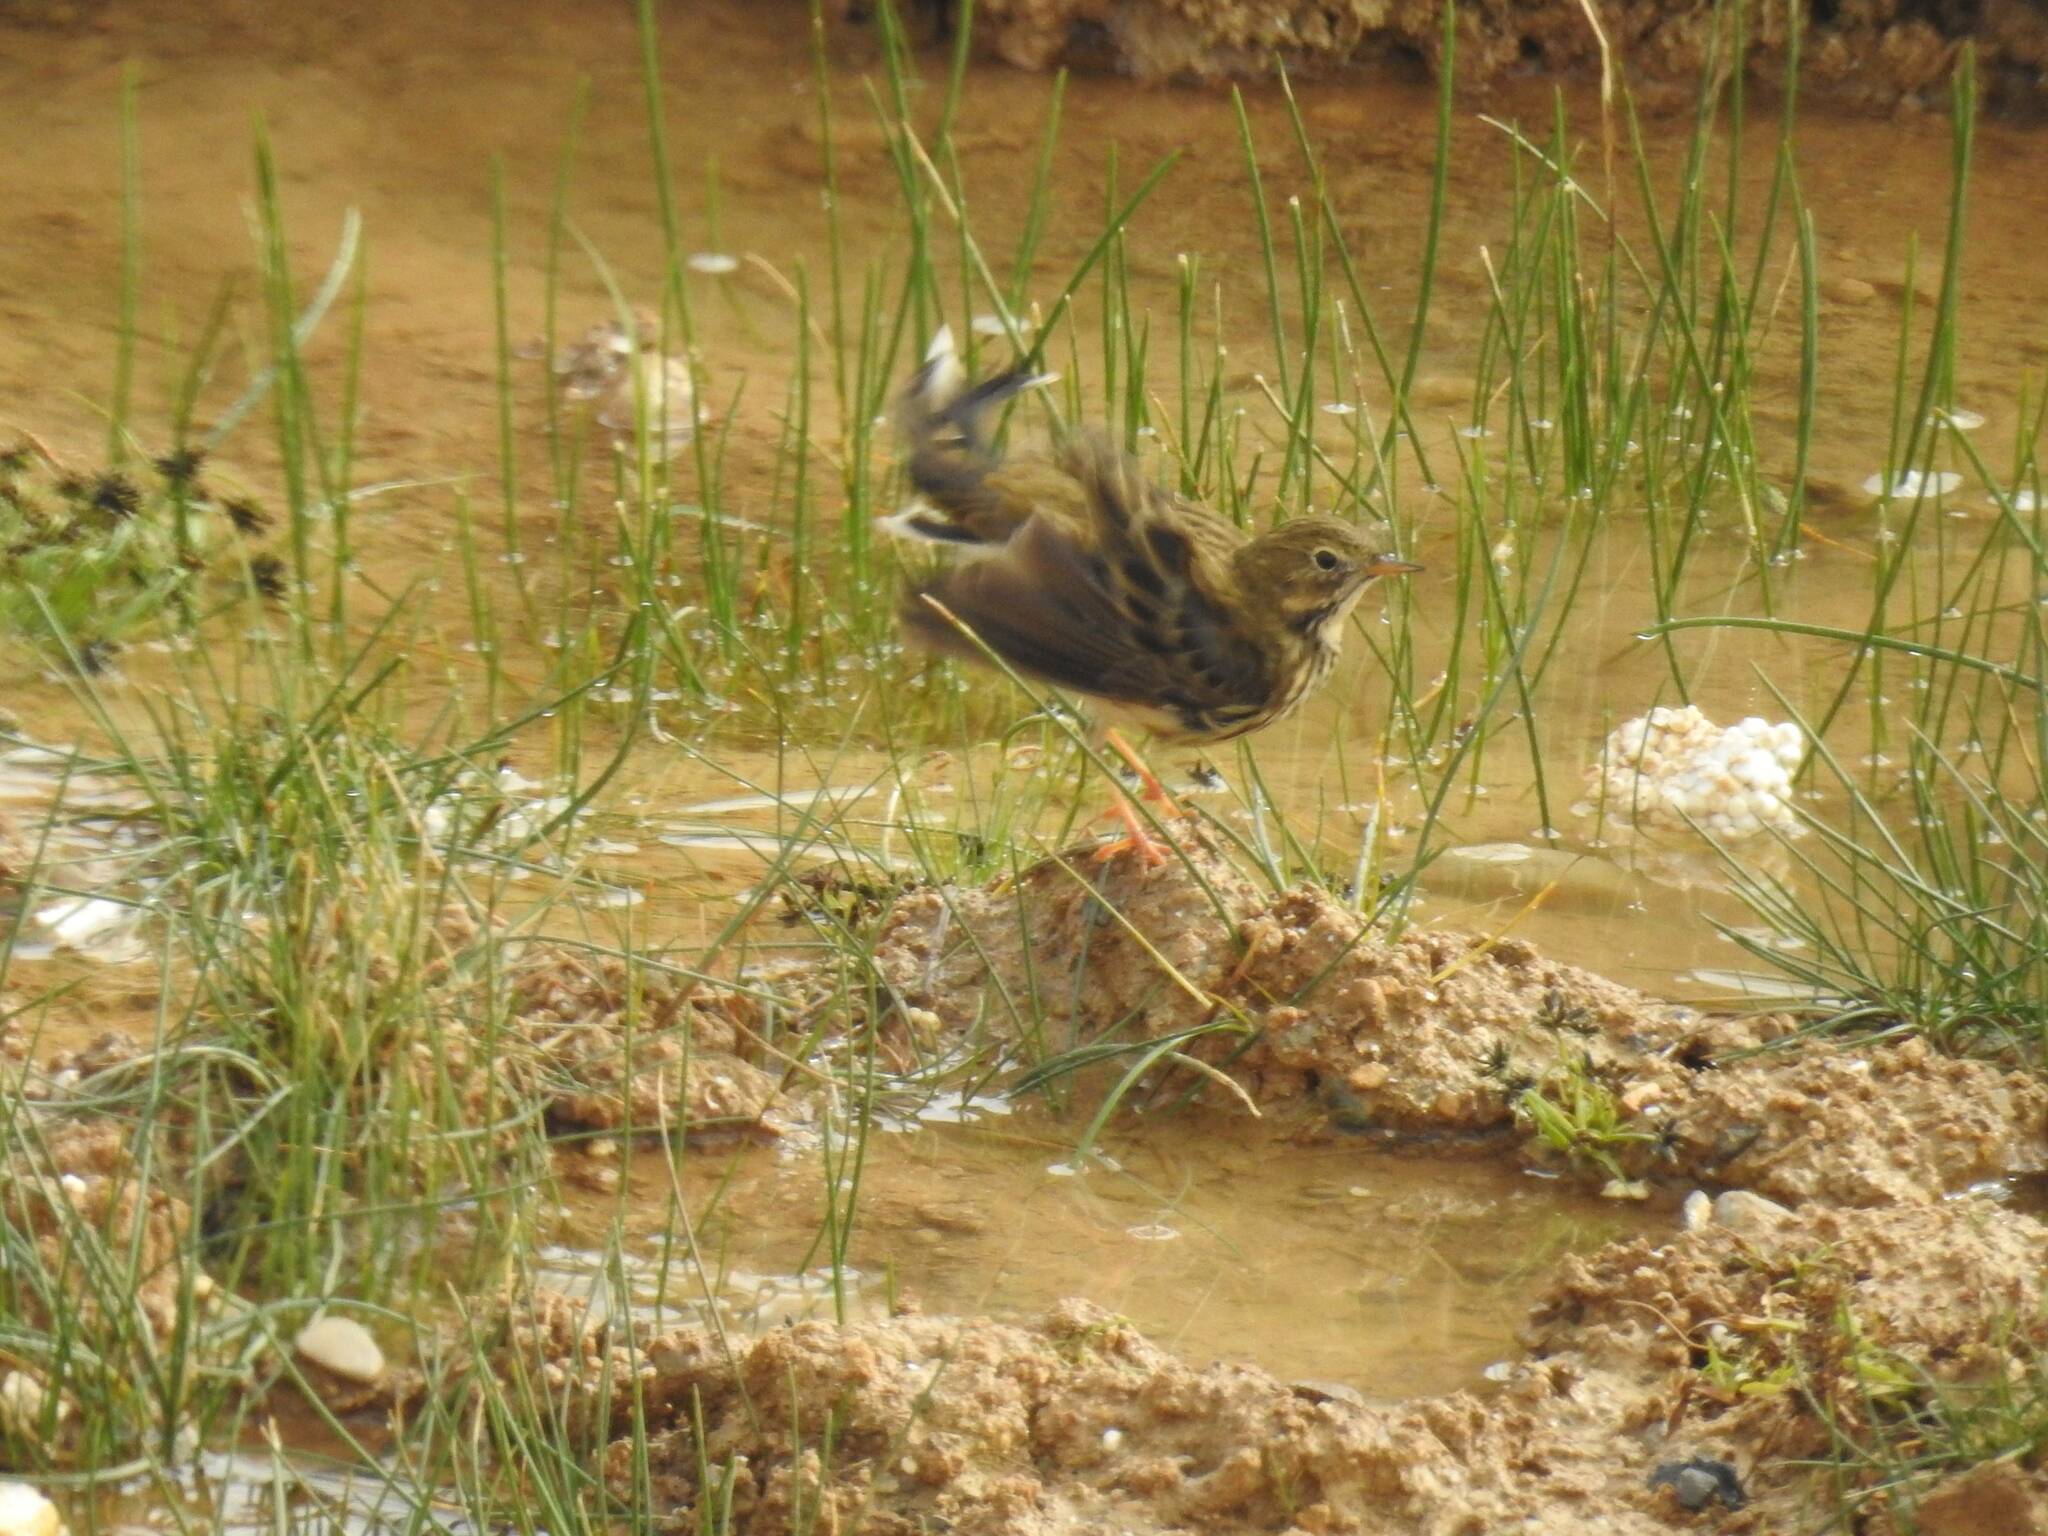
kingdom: Animalia
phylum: Chordata
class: Aves
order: Passeriformes
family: Motacillidae
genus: Anthus
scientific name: Anthus pratensis
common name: Meadow pipit
